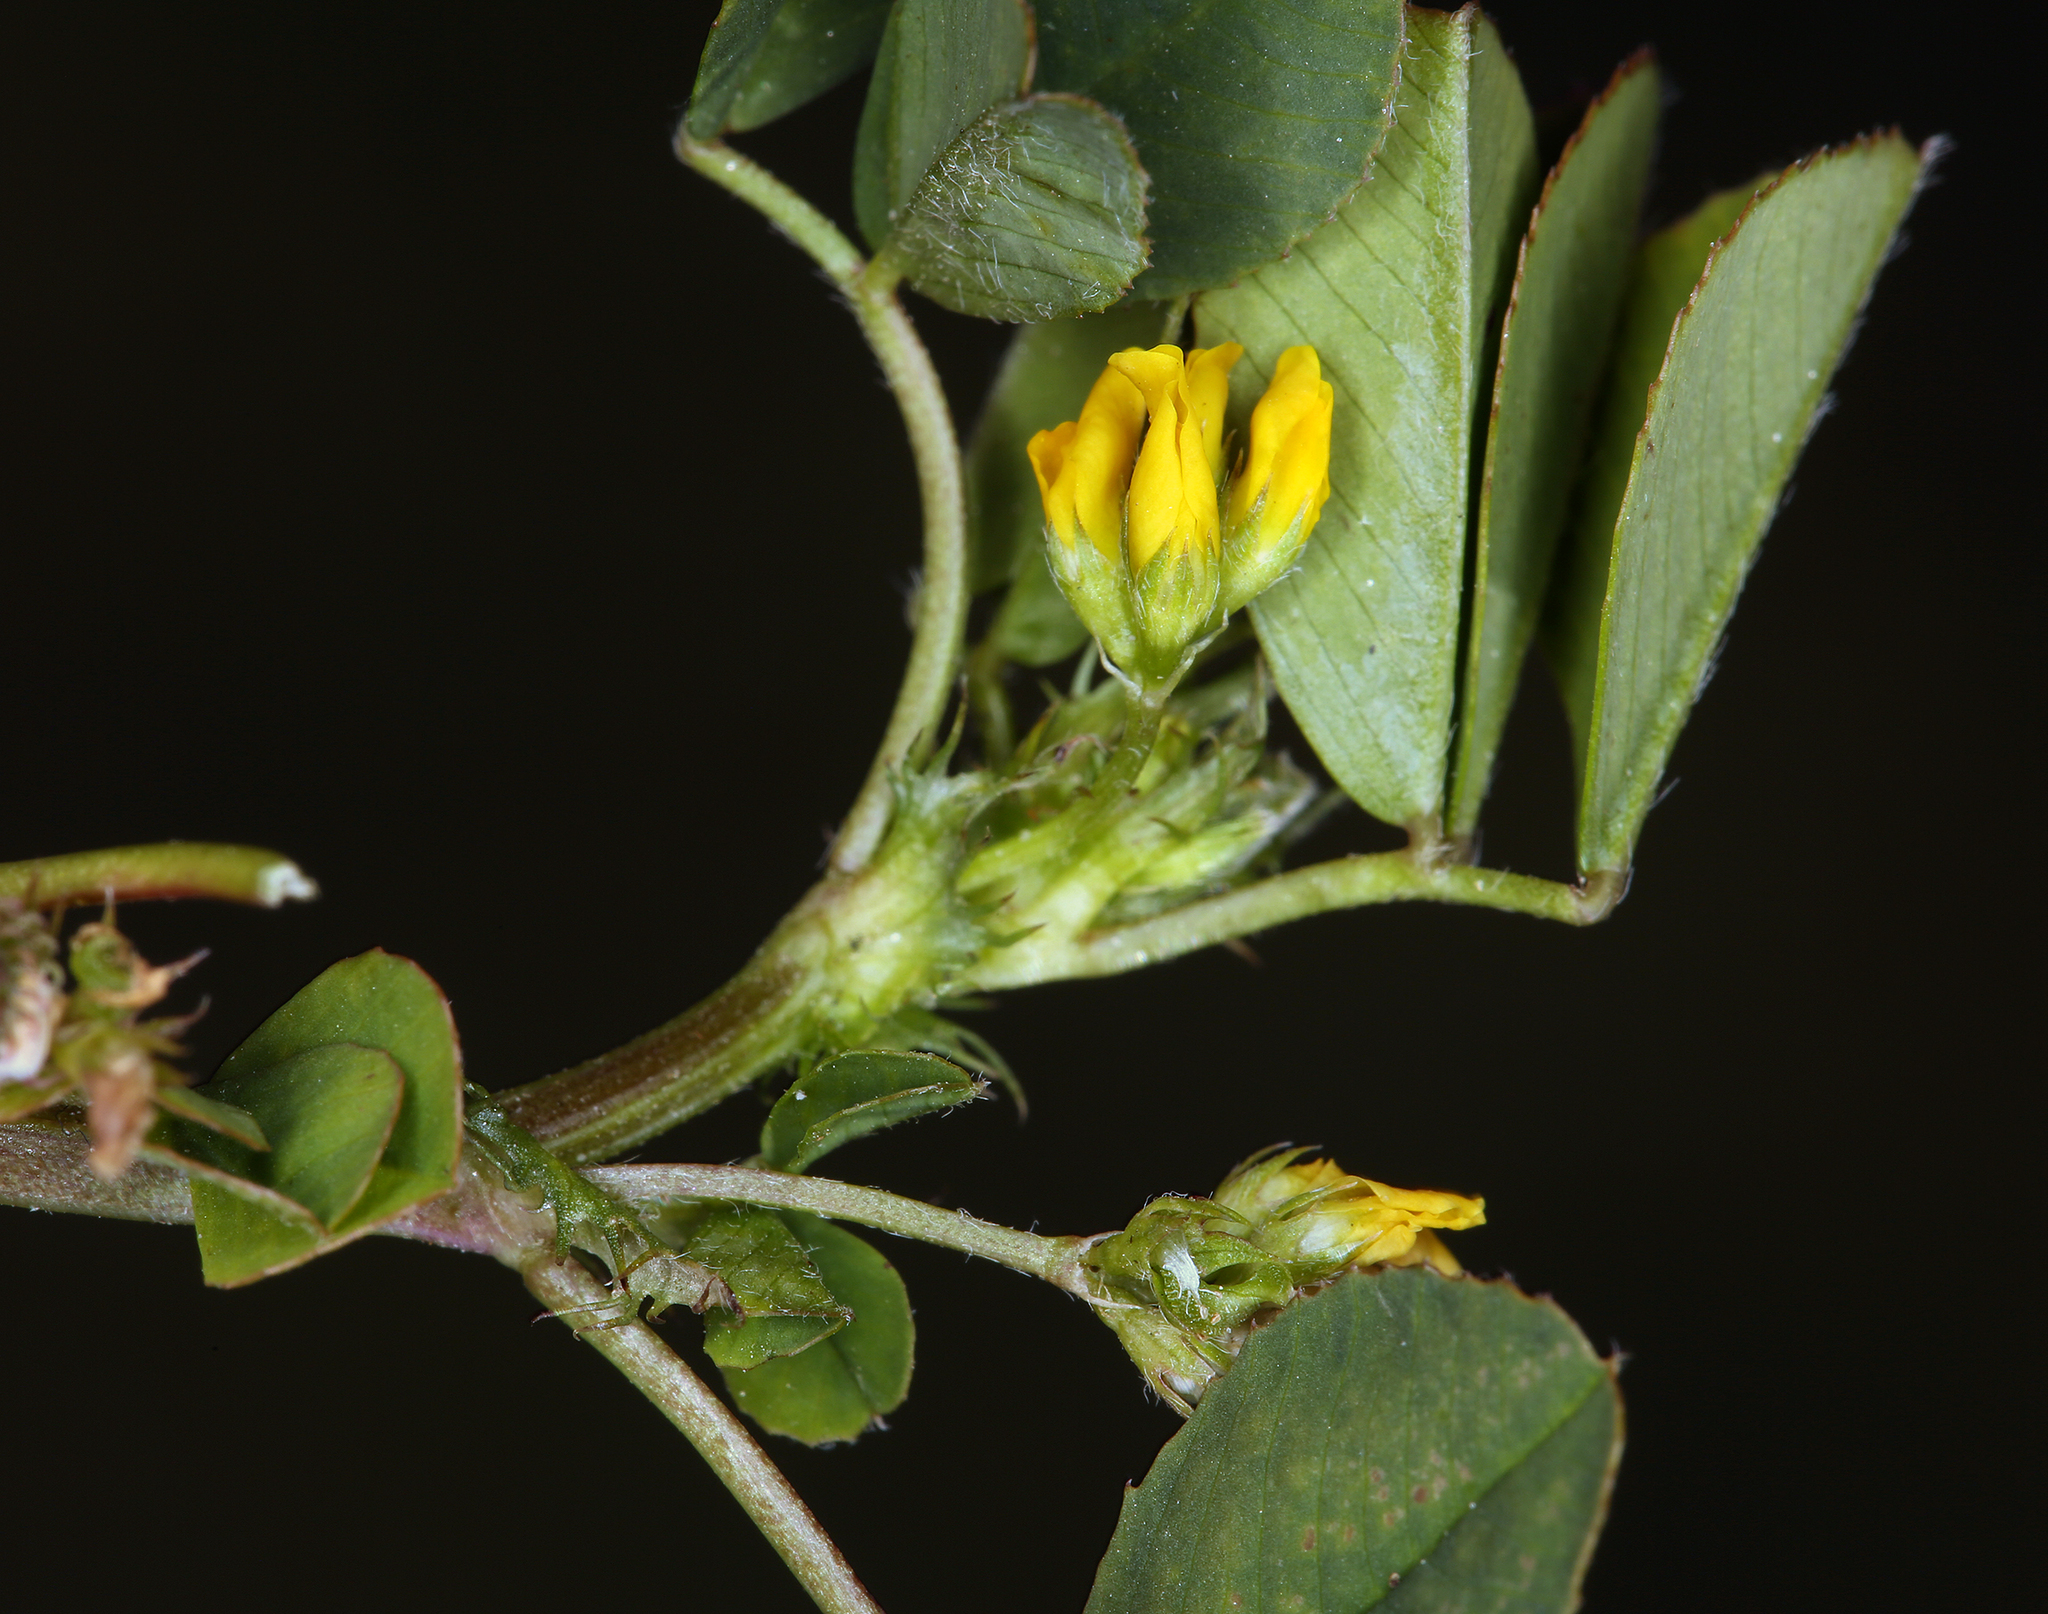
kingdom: Plantae
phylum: Tracheophyta
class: Magnoliopsida
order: Fabales
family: Fabaceae
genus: Medicago
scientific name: Medicago polymorpha
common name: Burclover
